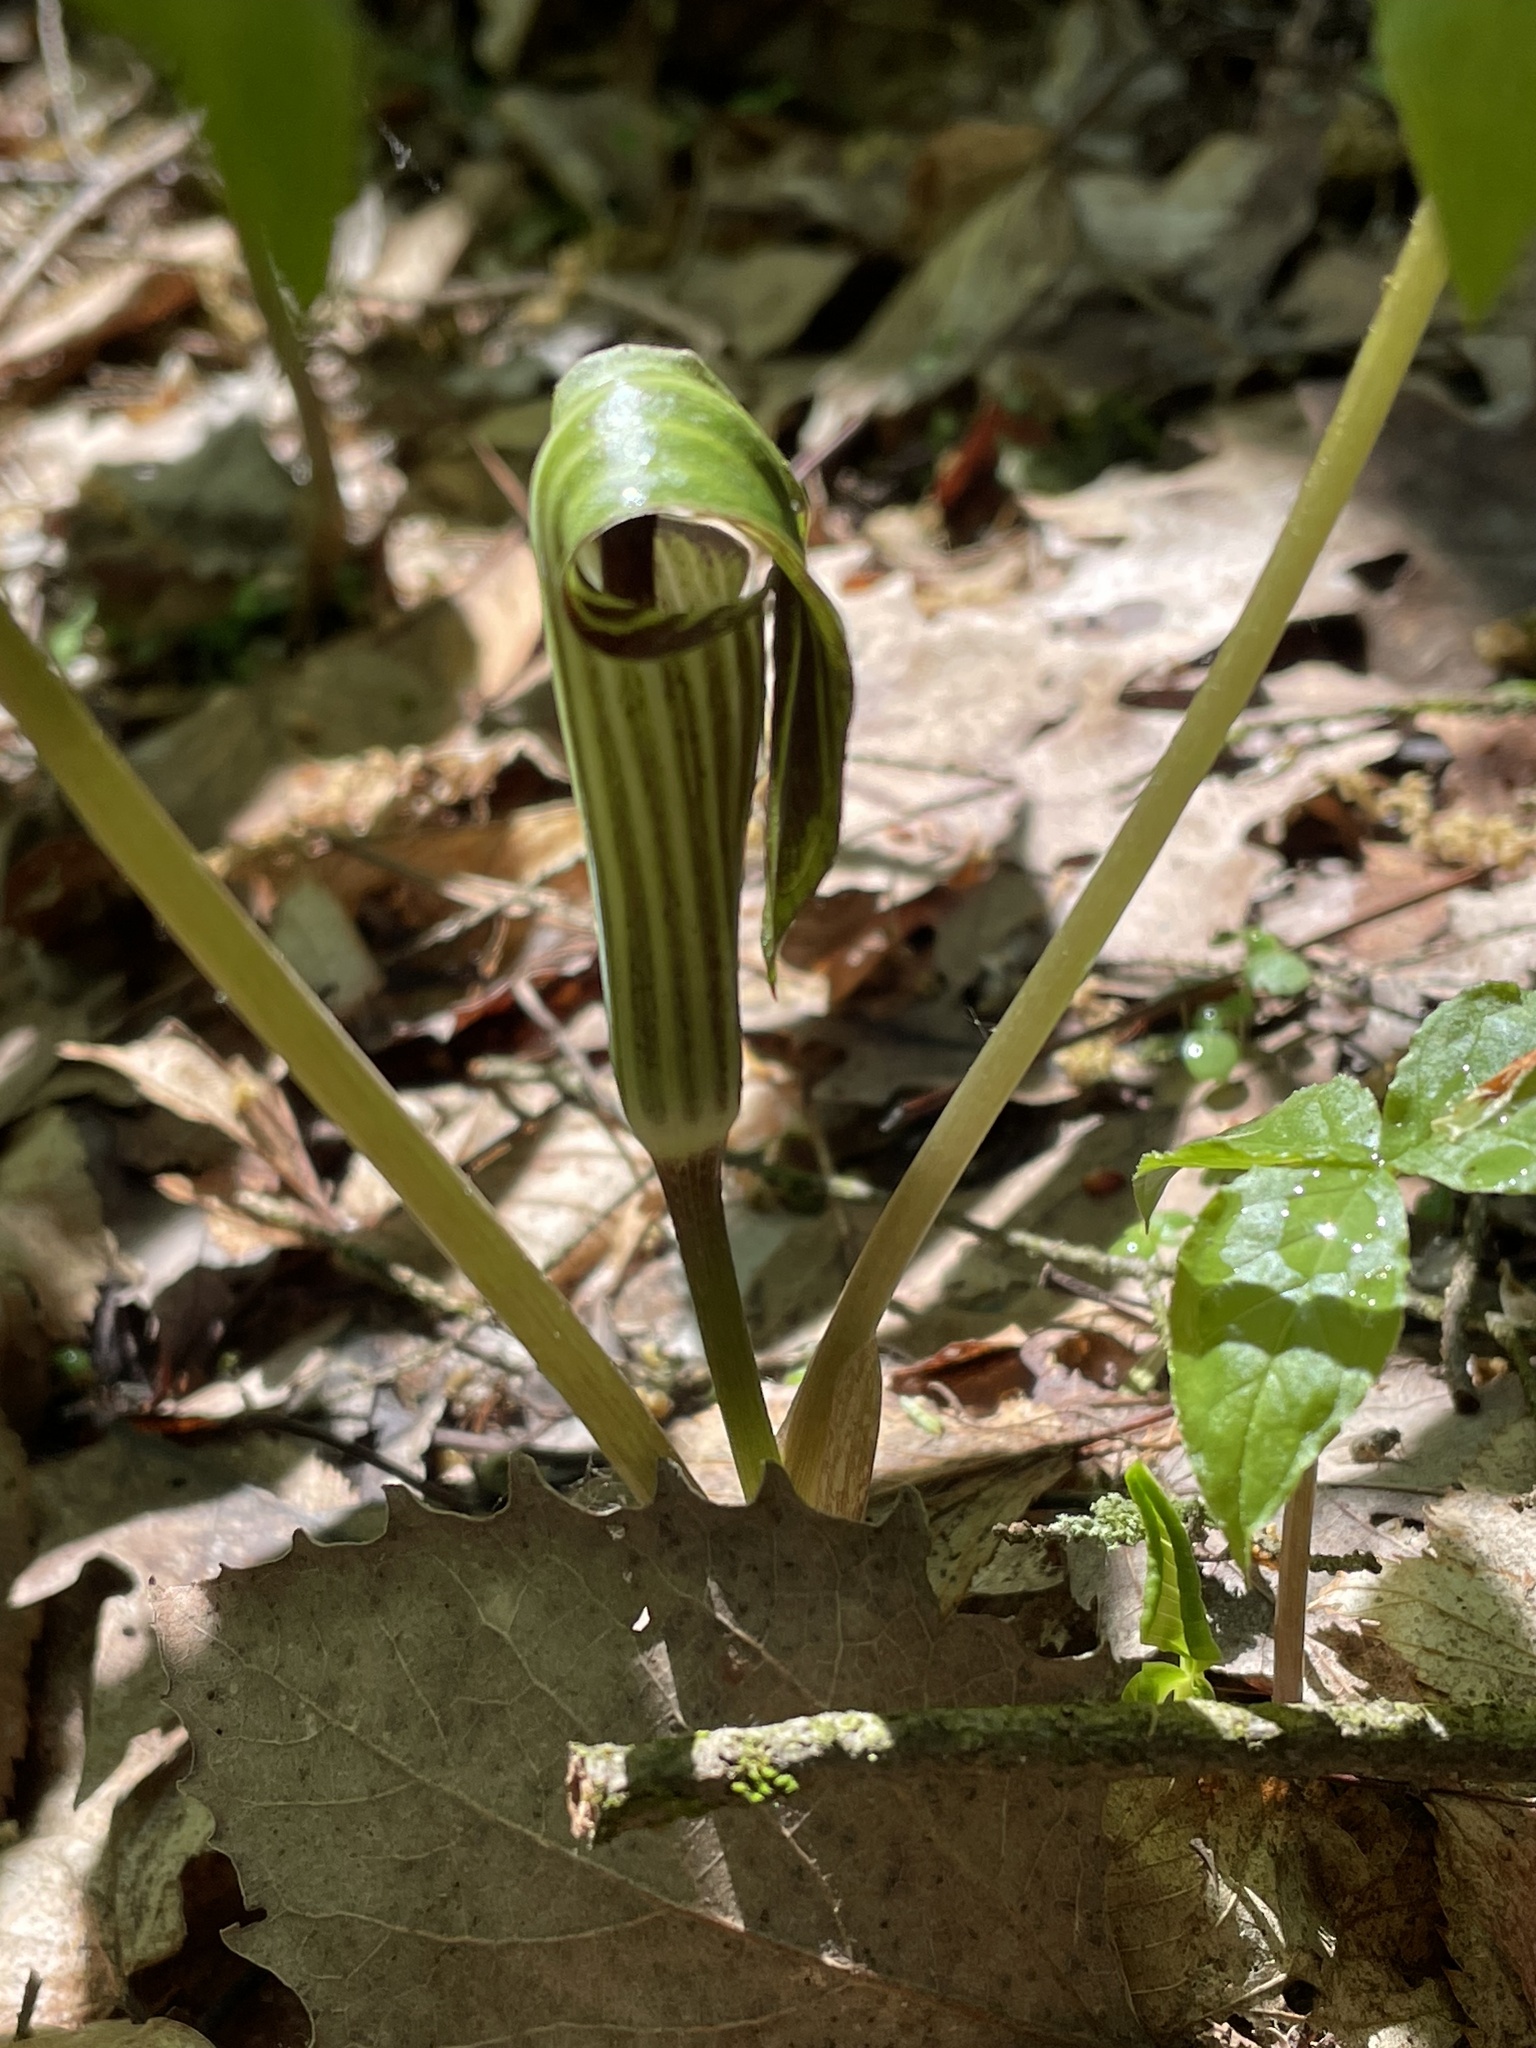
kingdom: Plantae
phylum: Tracheophyta
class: Liliopsida
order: Alismatales
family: Araceae
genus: Arisaema
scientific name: Arisaema triphyllum
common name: Jack-in-the-pulpit
